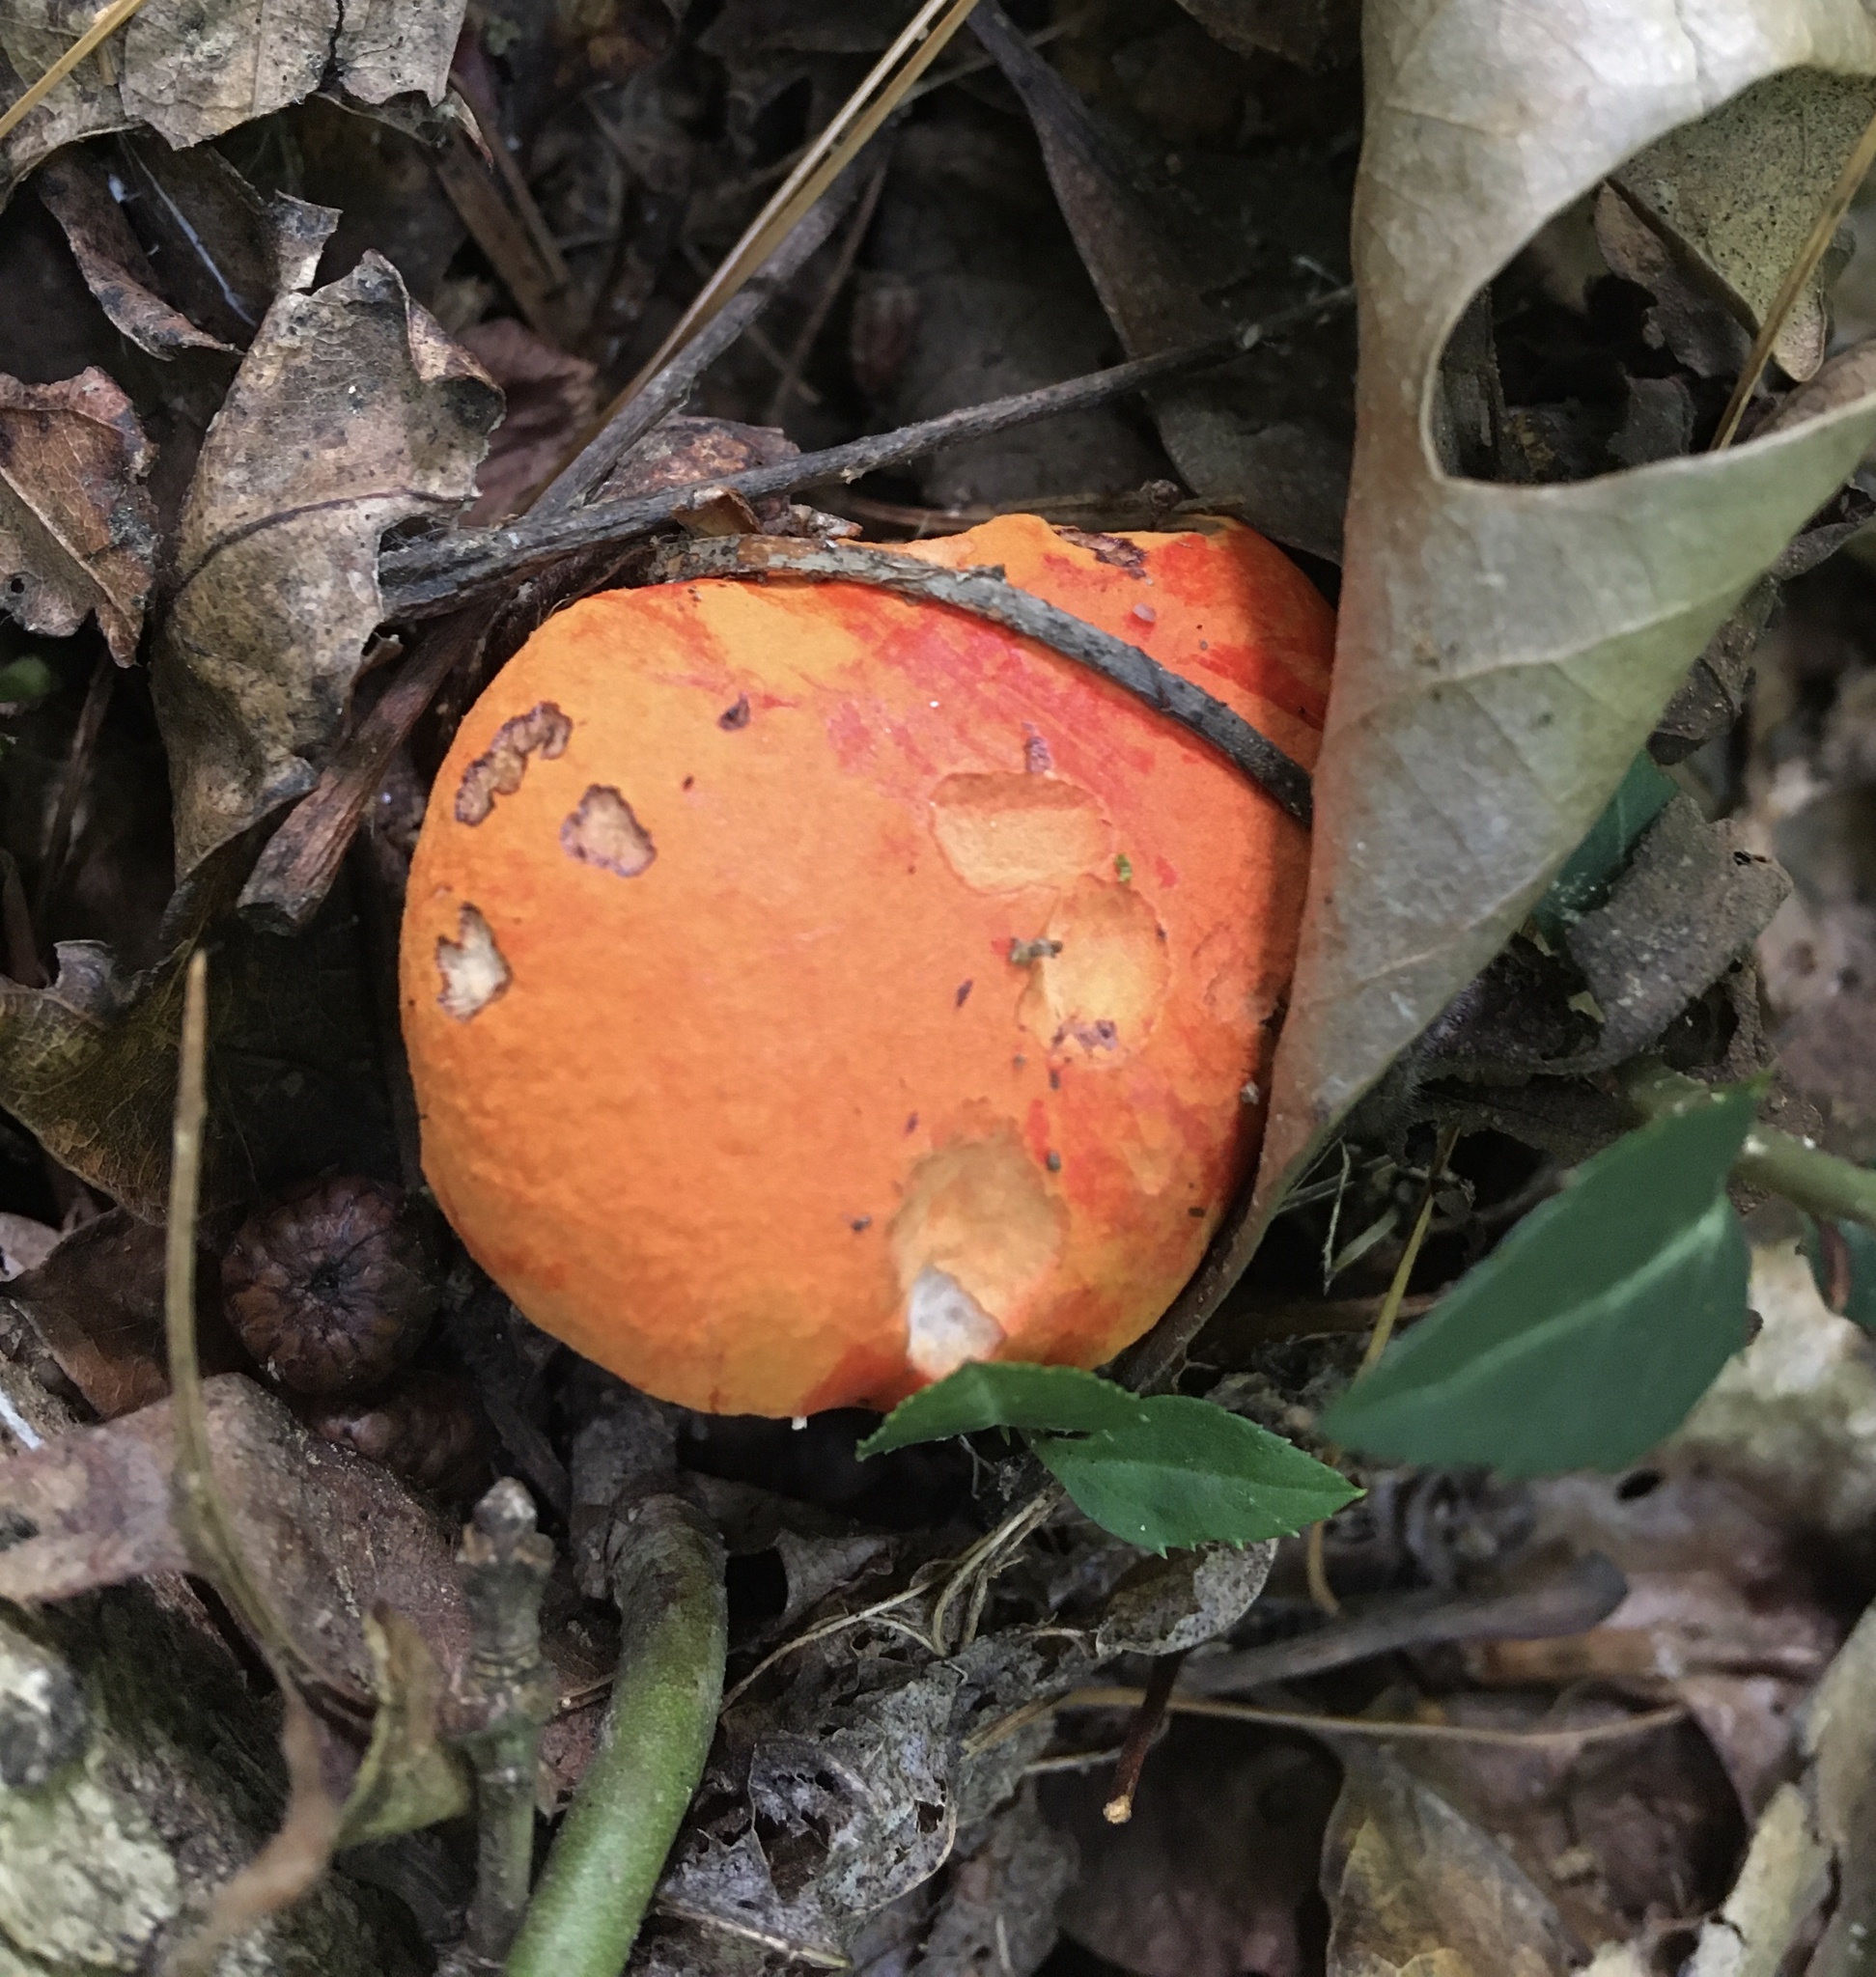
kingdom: Fungi
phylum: Basidiomycota
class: Agaricomycetes
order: Boletales
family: Boletaceae
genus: Tylopilus
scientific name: Tylopilus balloui
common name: Burnt-orange bolete
